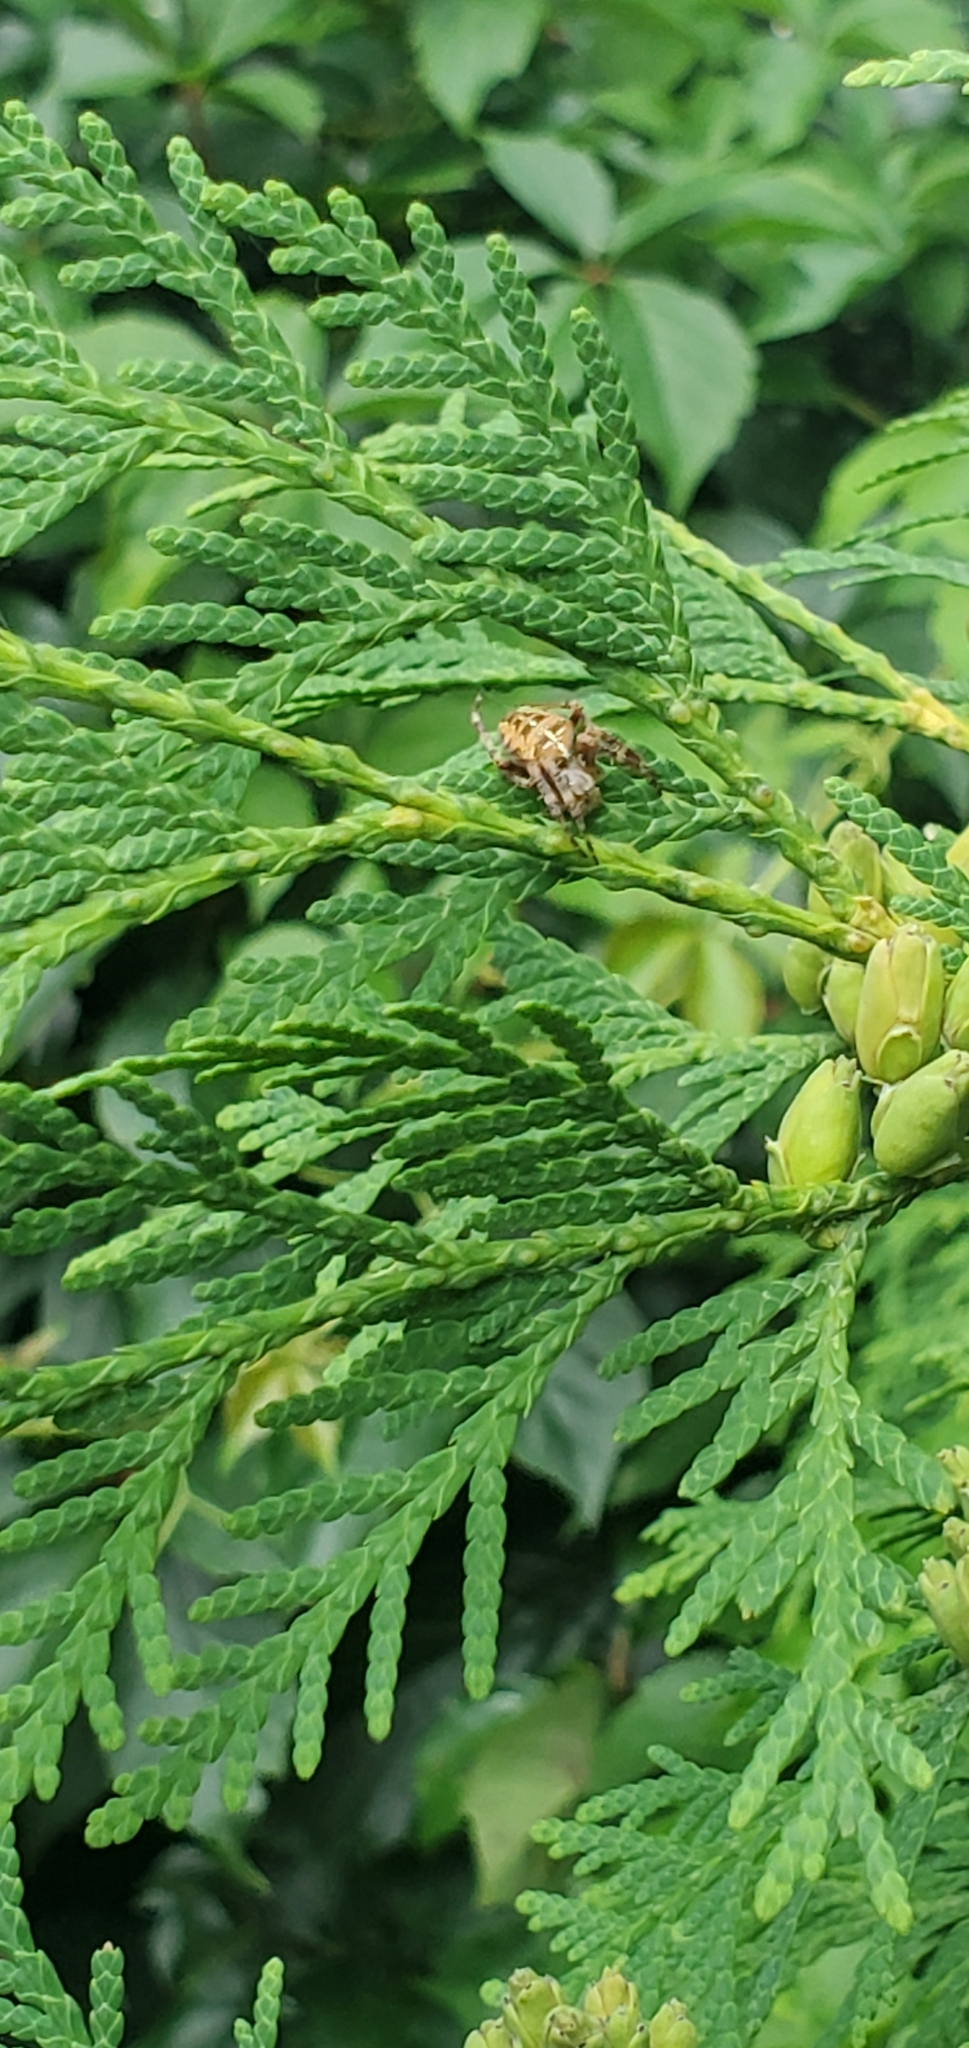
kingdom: Animalia
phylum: Arthropoda
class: Arachnida
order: Araneae
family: Araneidae
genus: Araneus
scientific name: Araneus diadematus
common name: Cross orbweaver
